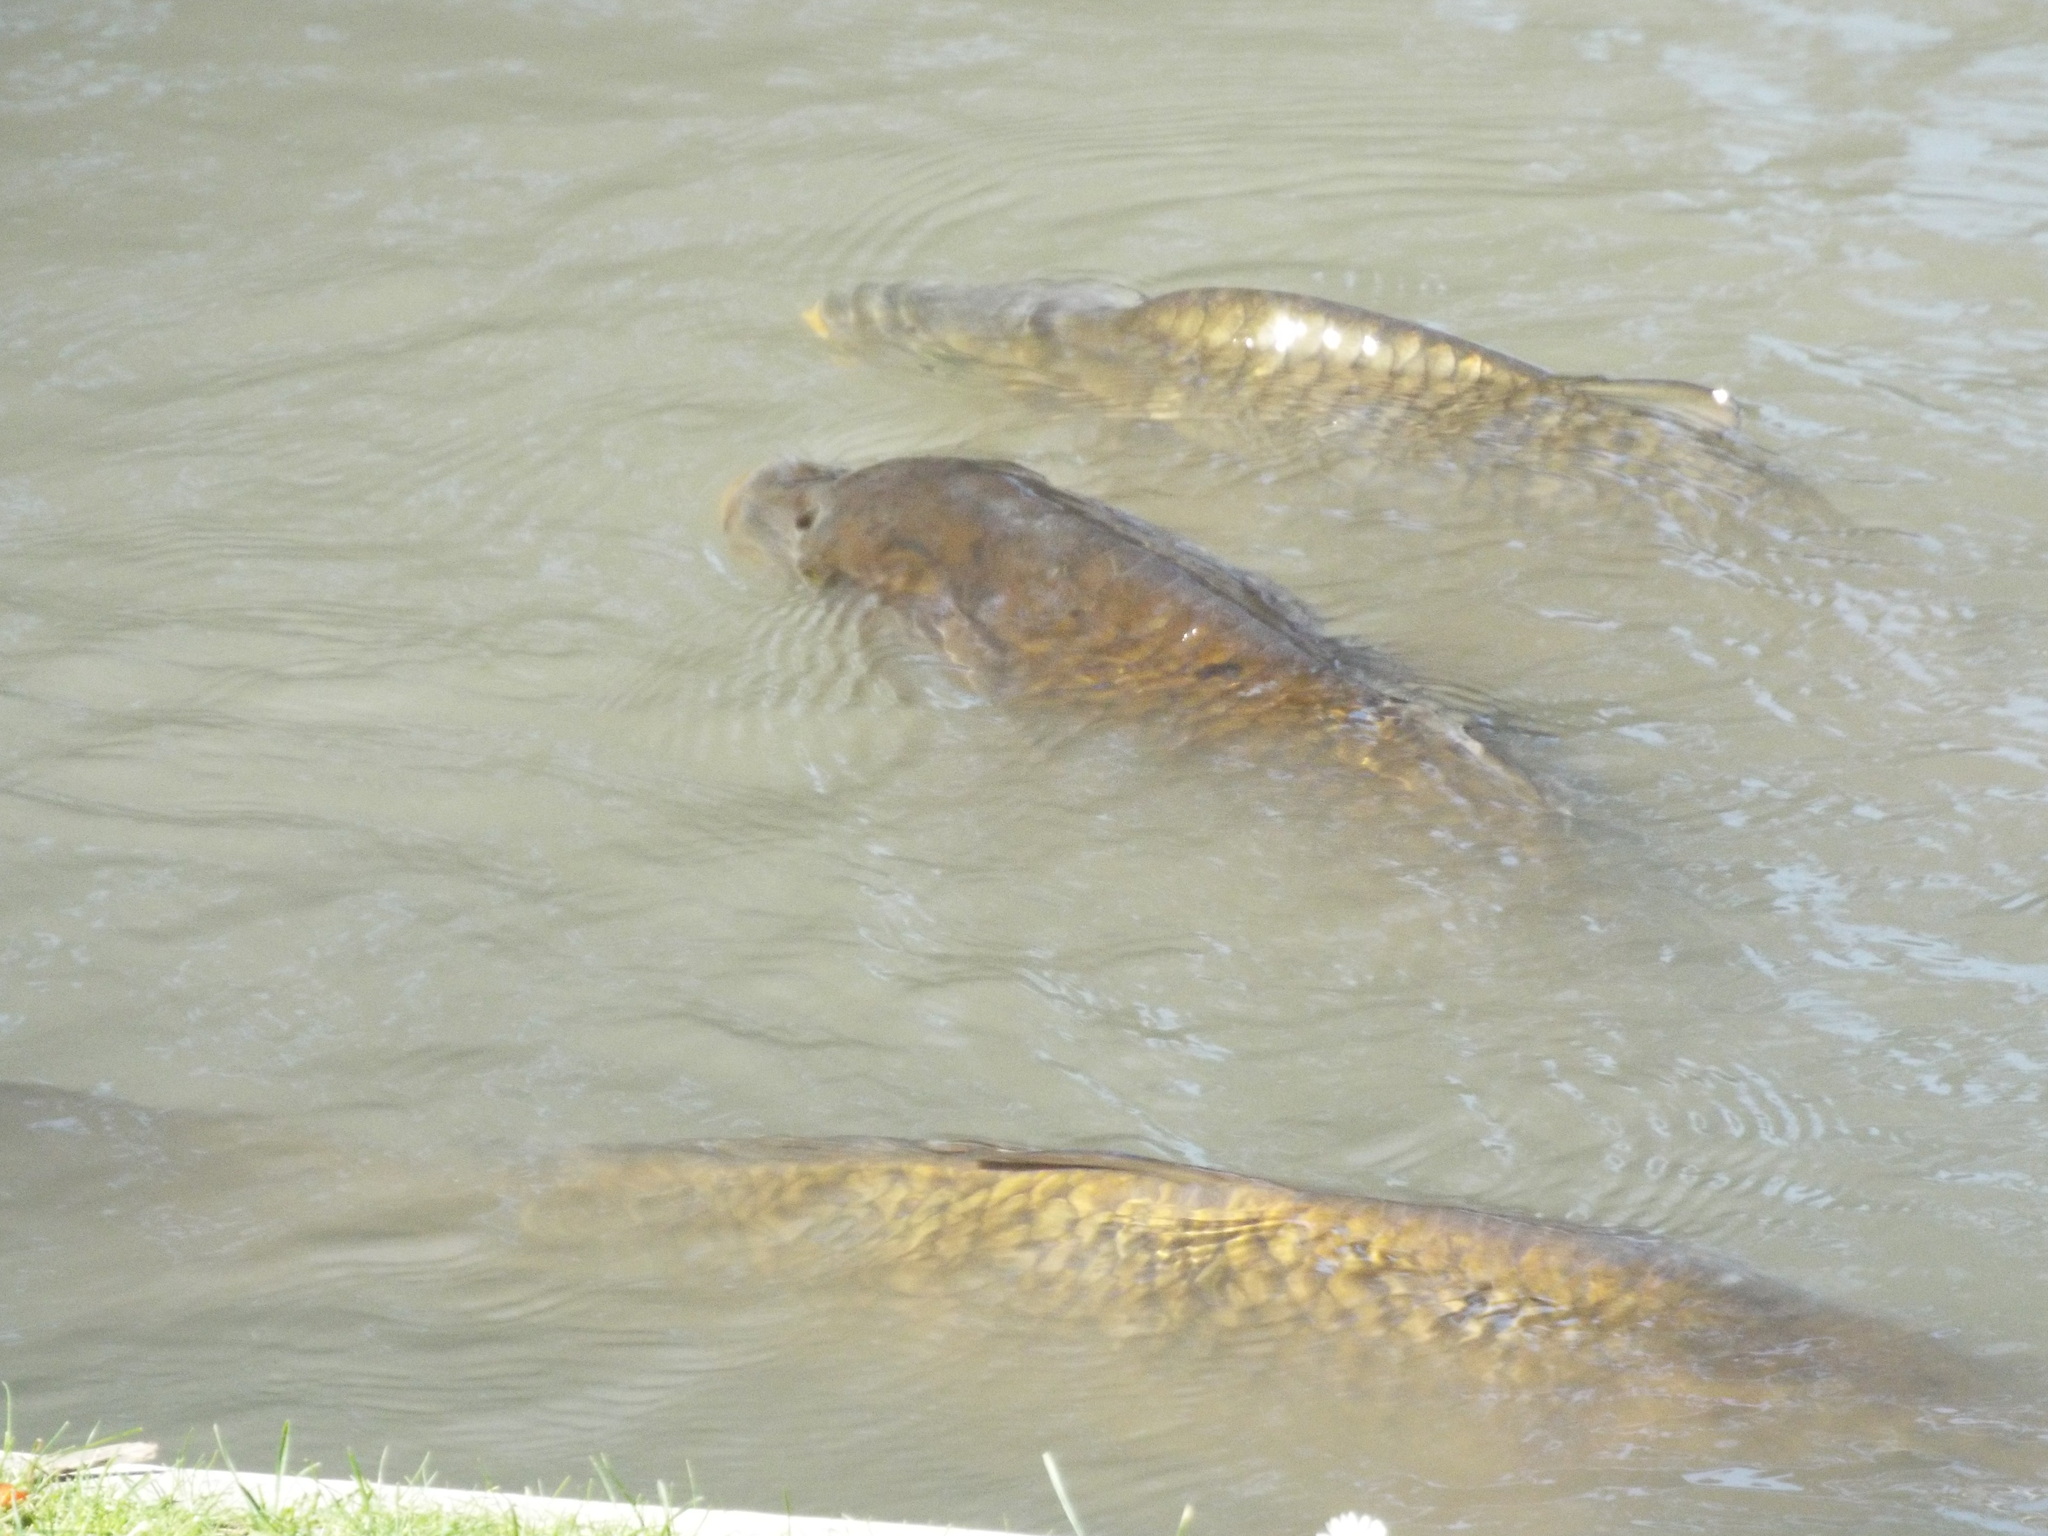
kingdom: Animalia
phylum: Chordata
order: Cypriniformes
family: Cyprinidae
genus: Cyprinus
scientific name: Cyprinus carpio
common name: Common carp
